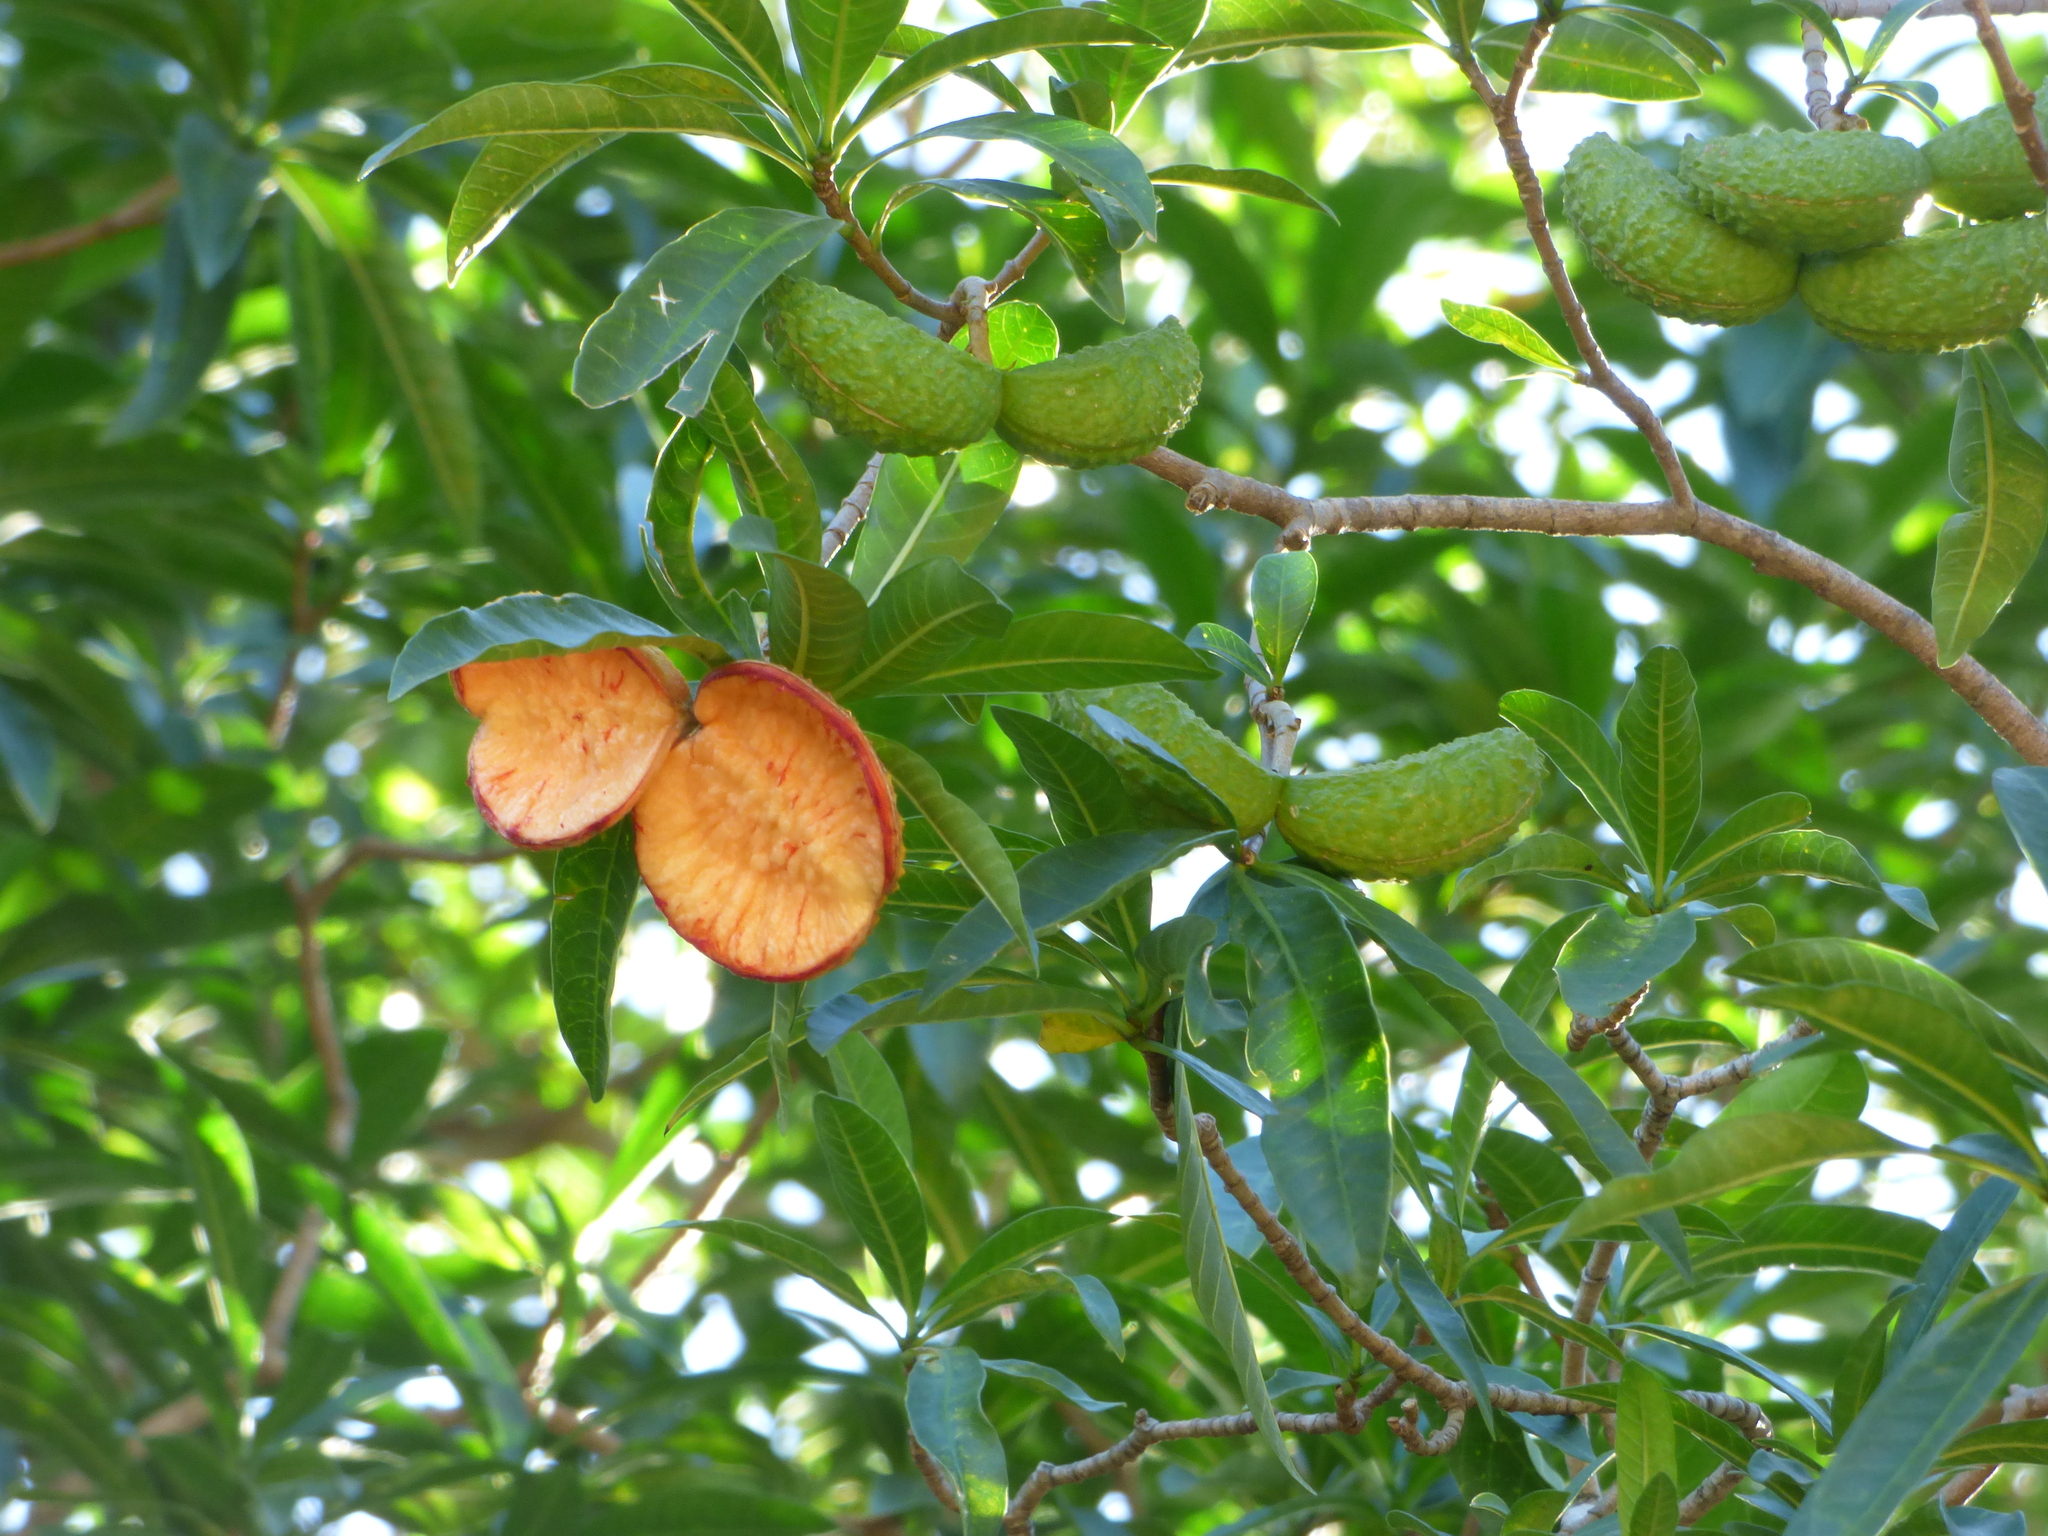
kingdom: Plantae
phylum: Tracheophyta
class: Magnoliopsida
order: Gentianales
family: Apocynaceae
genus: Tabernaemontana
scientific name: Tabernaemontana catharinensis
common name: Pinwheel-flower
